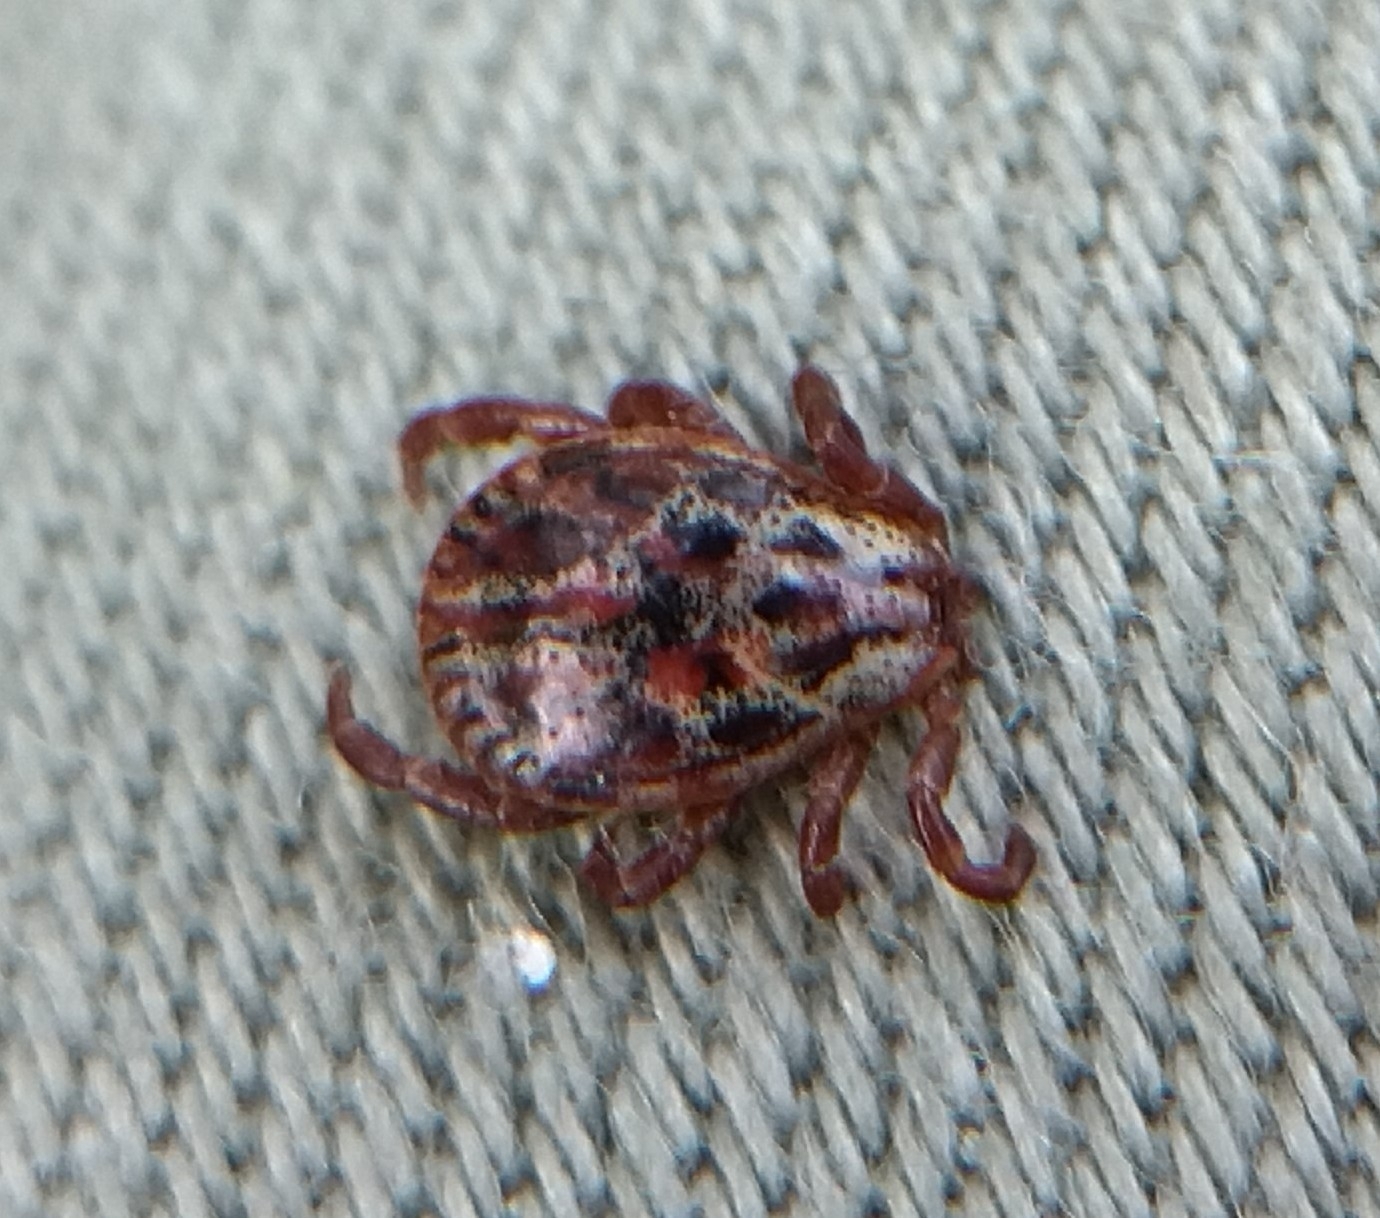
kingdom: Animalia
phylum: Arthropoda
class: Arachnida
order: Ixodida
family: Ixodidae
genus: Dermacentor
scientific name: Dermacentor reticulatus
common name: Ornate cow tick
